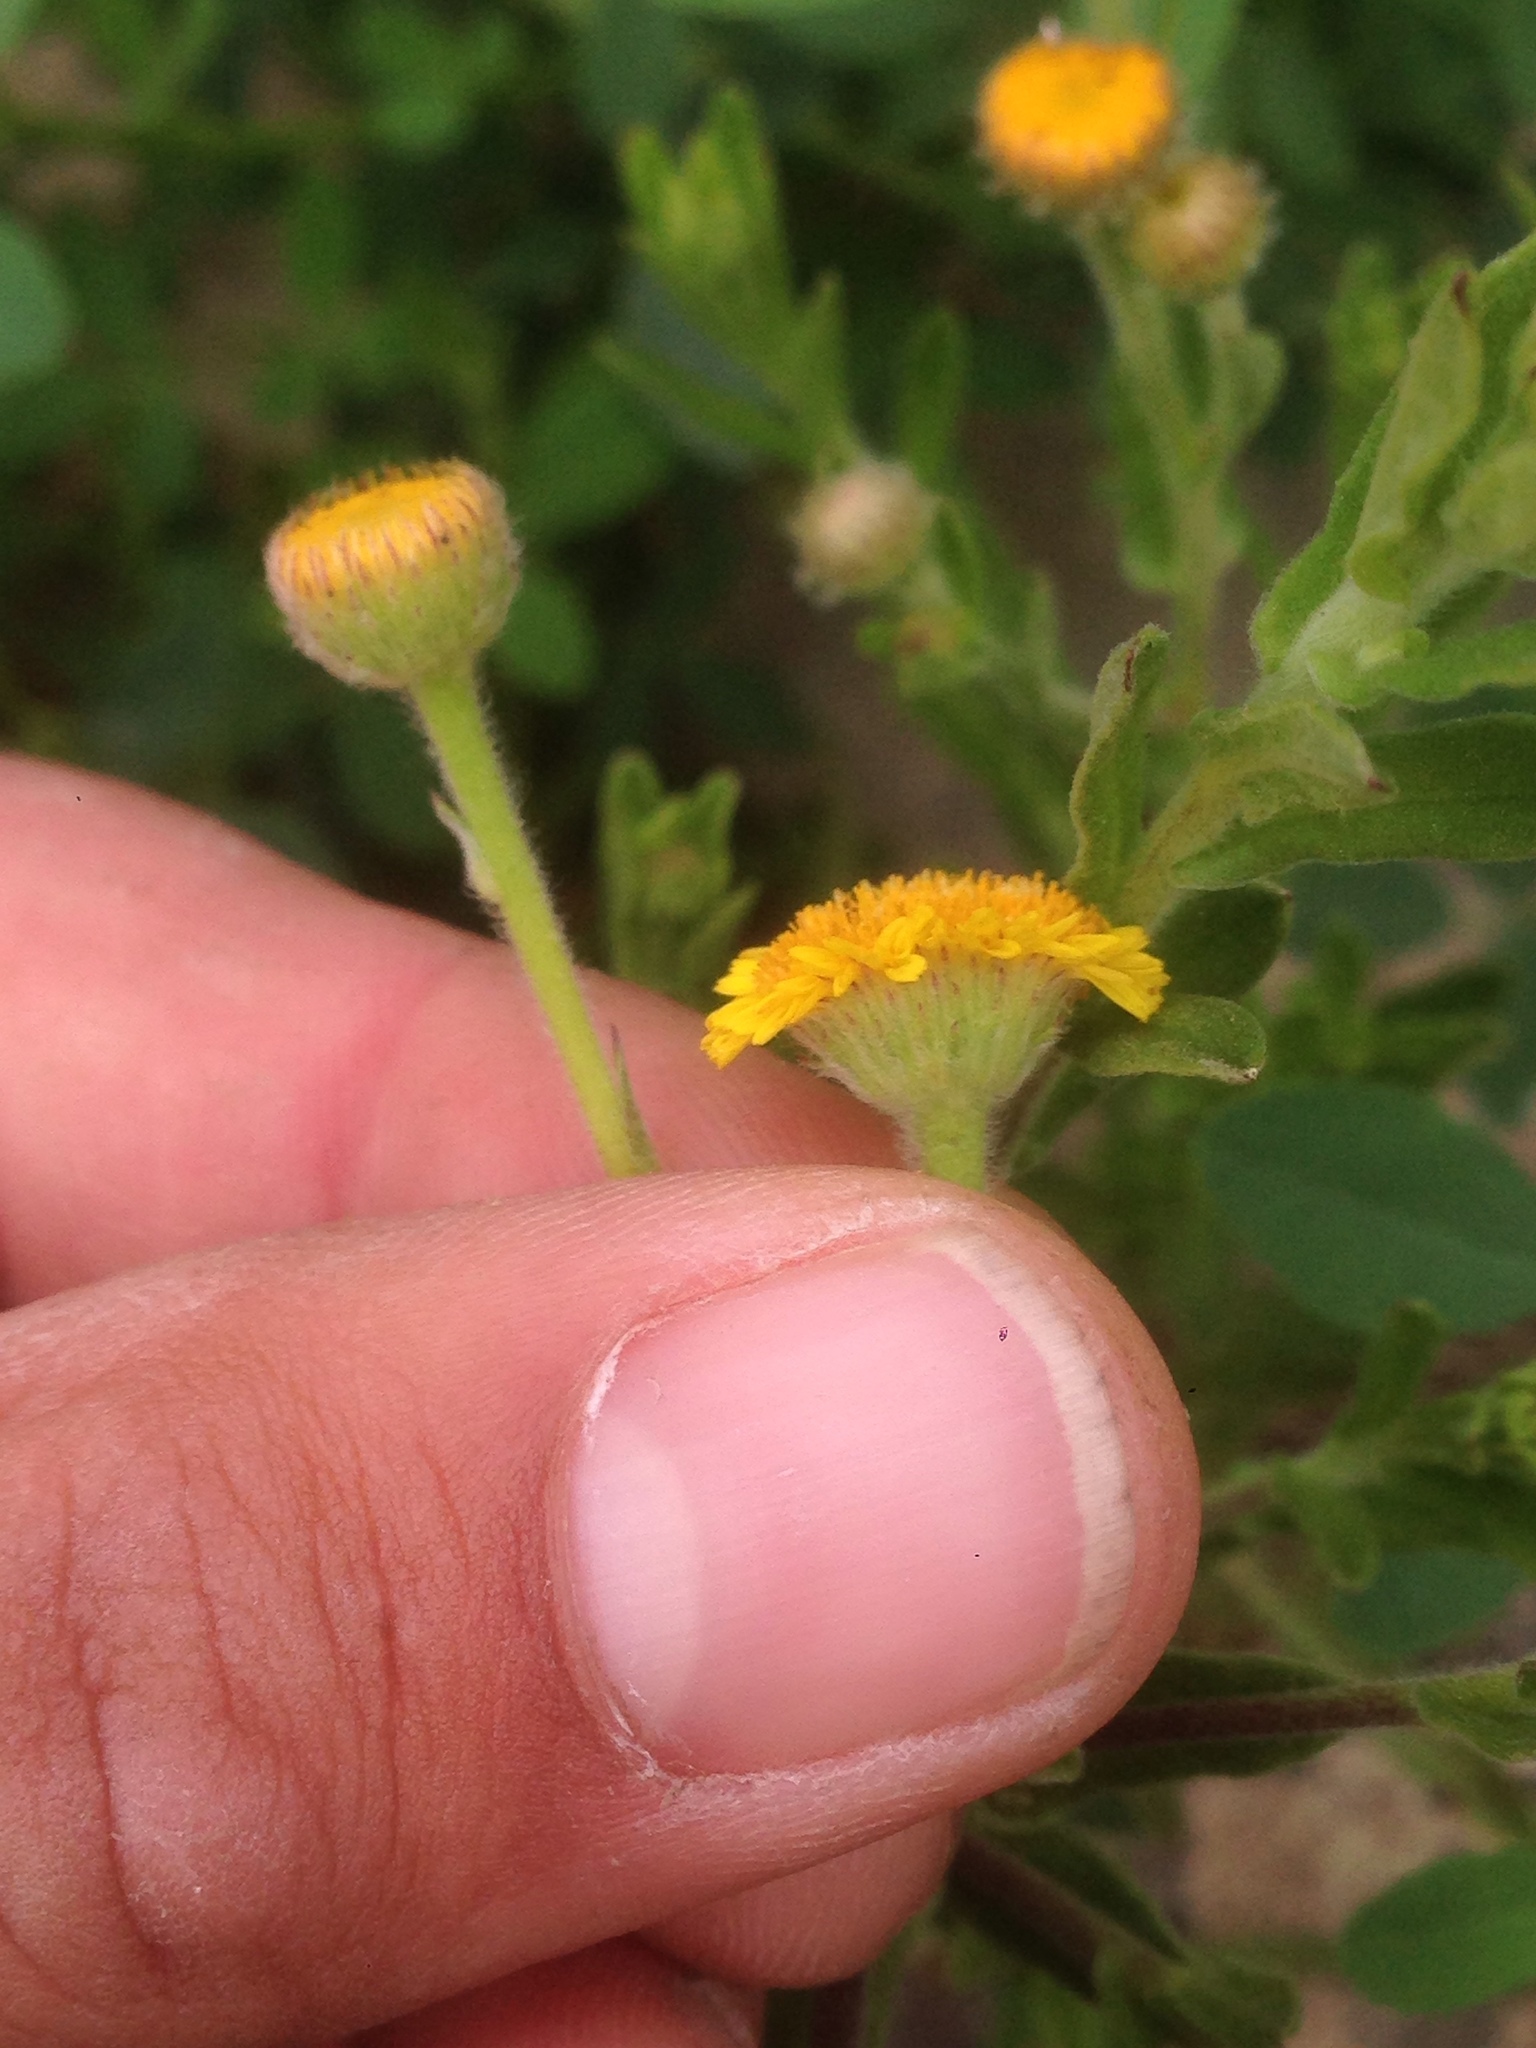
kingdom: Plantae
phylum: Tracheophyta
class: Magnoliopsida
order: Asterales
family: Asteraceae
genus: Pulicaria
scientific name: Pulicaria paludosa
